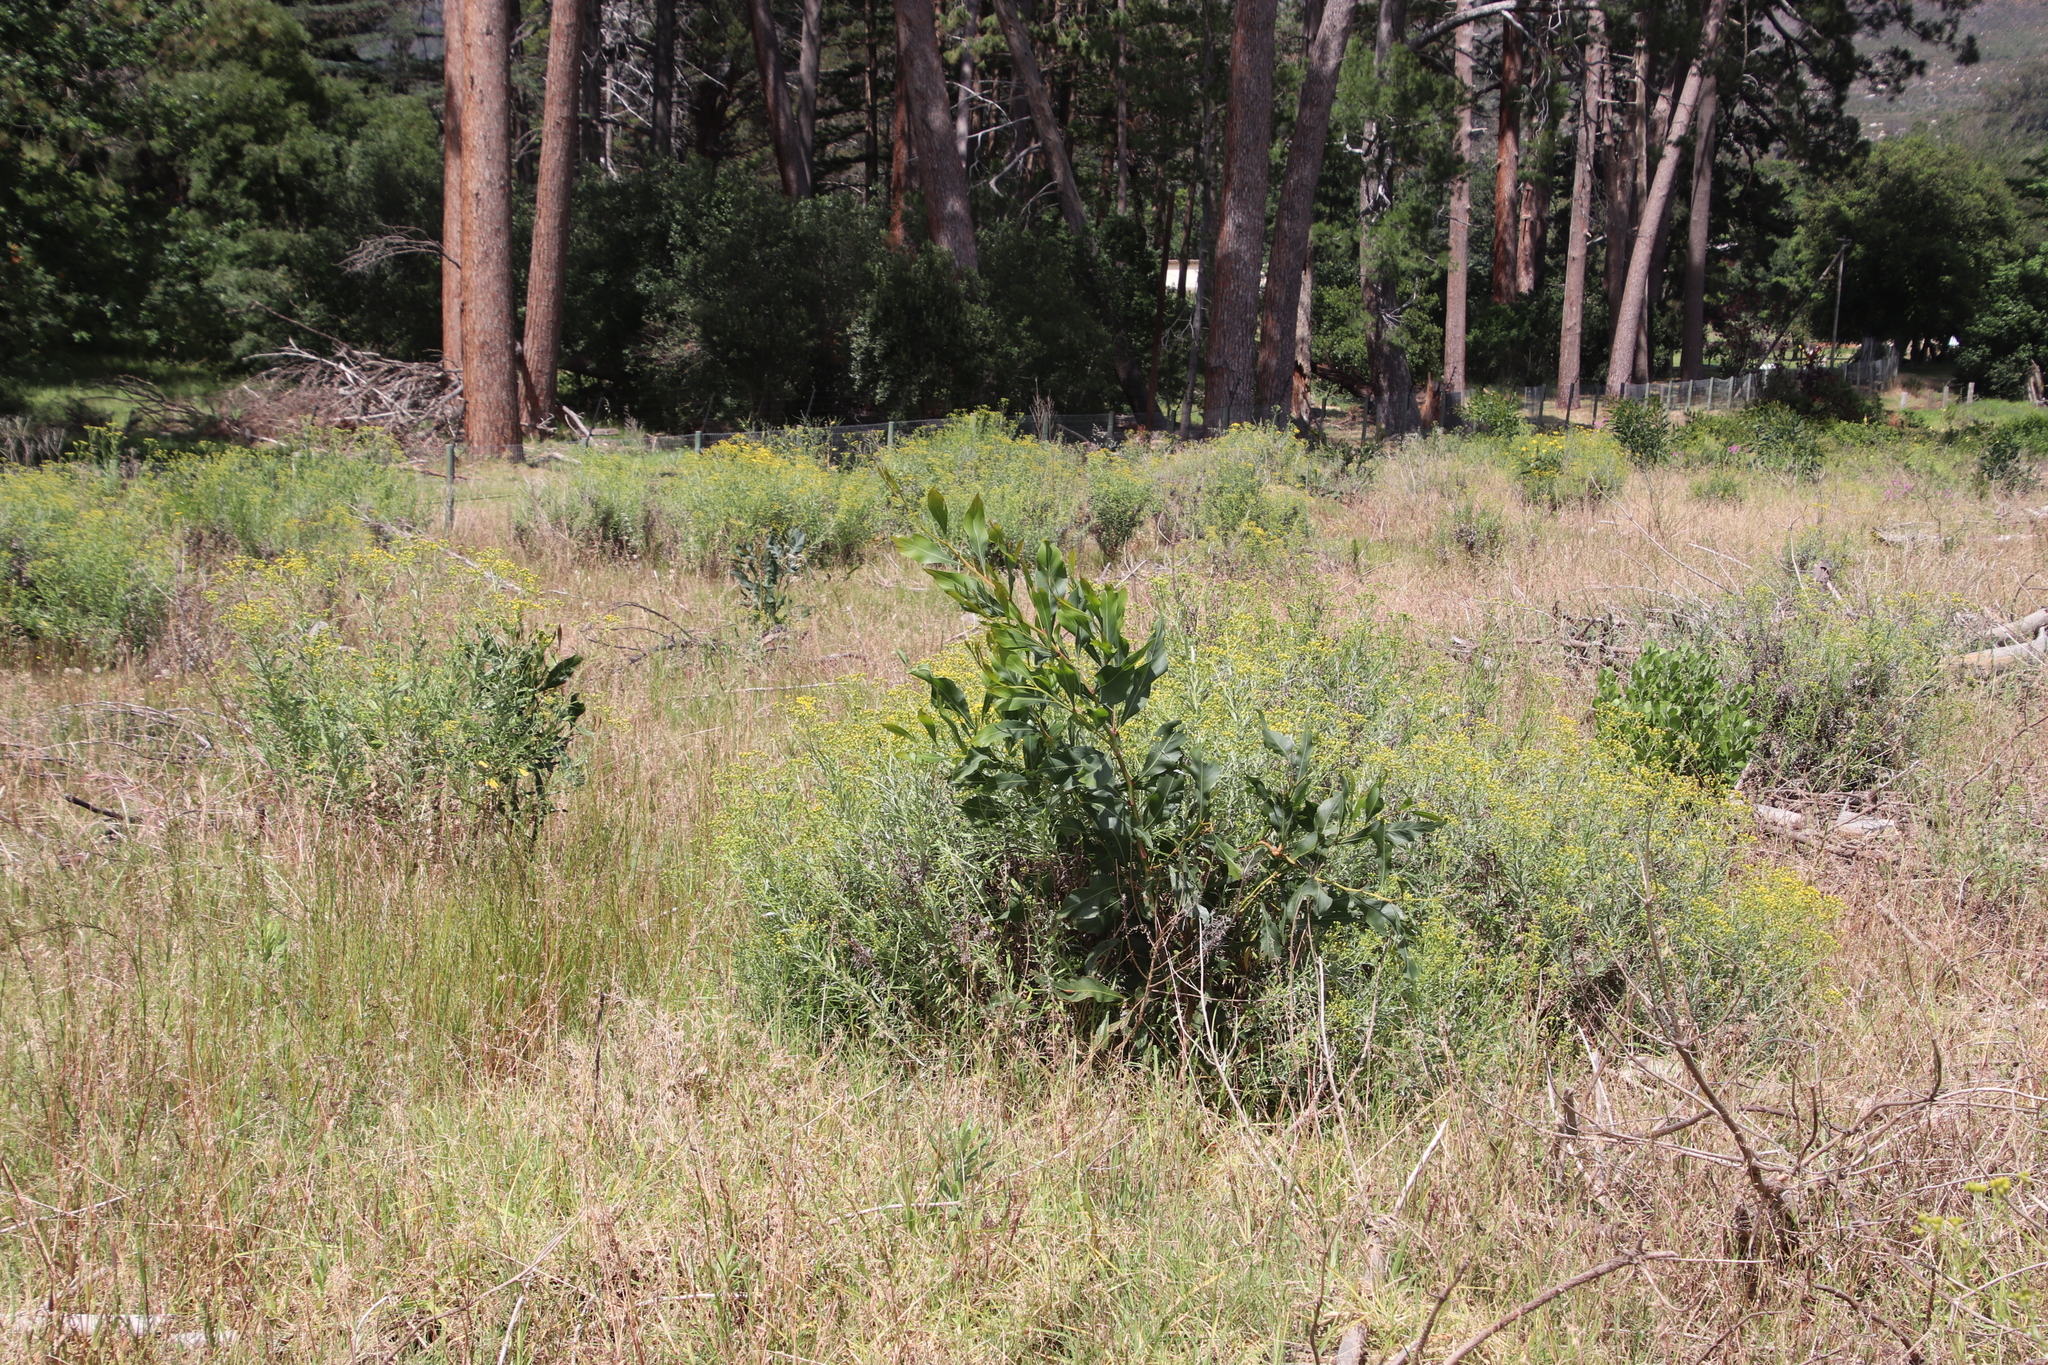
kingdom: Plantae
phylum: Tracheophyta
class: Magnoliopsida
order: Fabales
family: Fabaceae
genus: Acacia
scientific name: Acacia saligna
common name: Orange wattle
